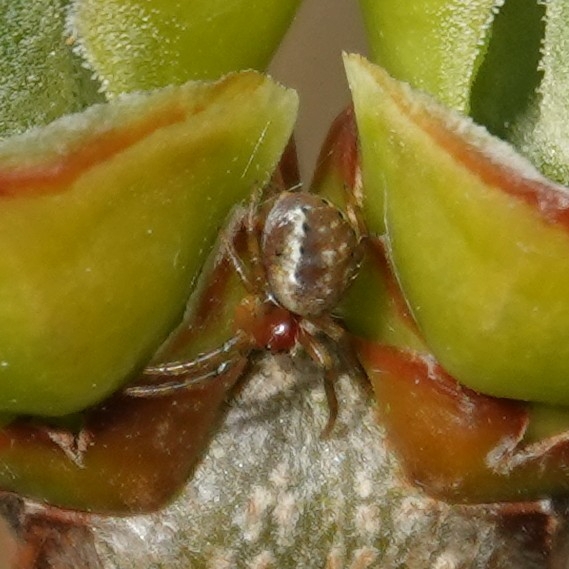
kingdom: Animalia
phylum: Arthropoda
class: Arachnida
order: Araneae
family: Araneidae
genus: Araniella
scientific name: Araniella
